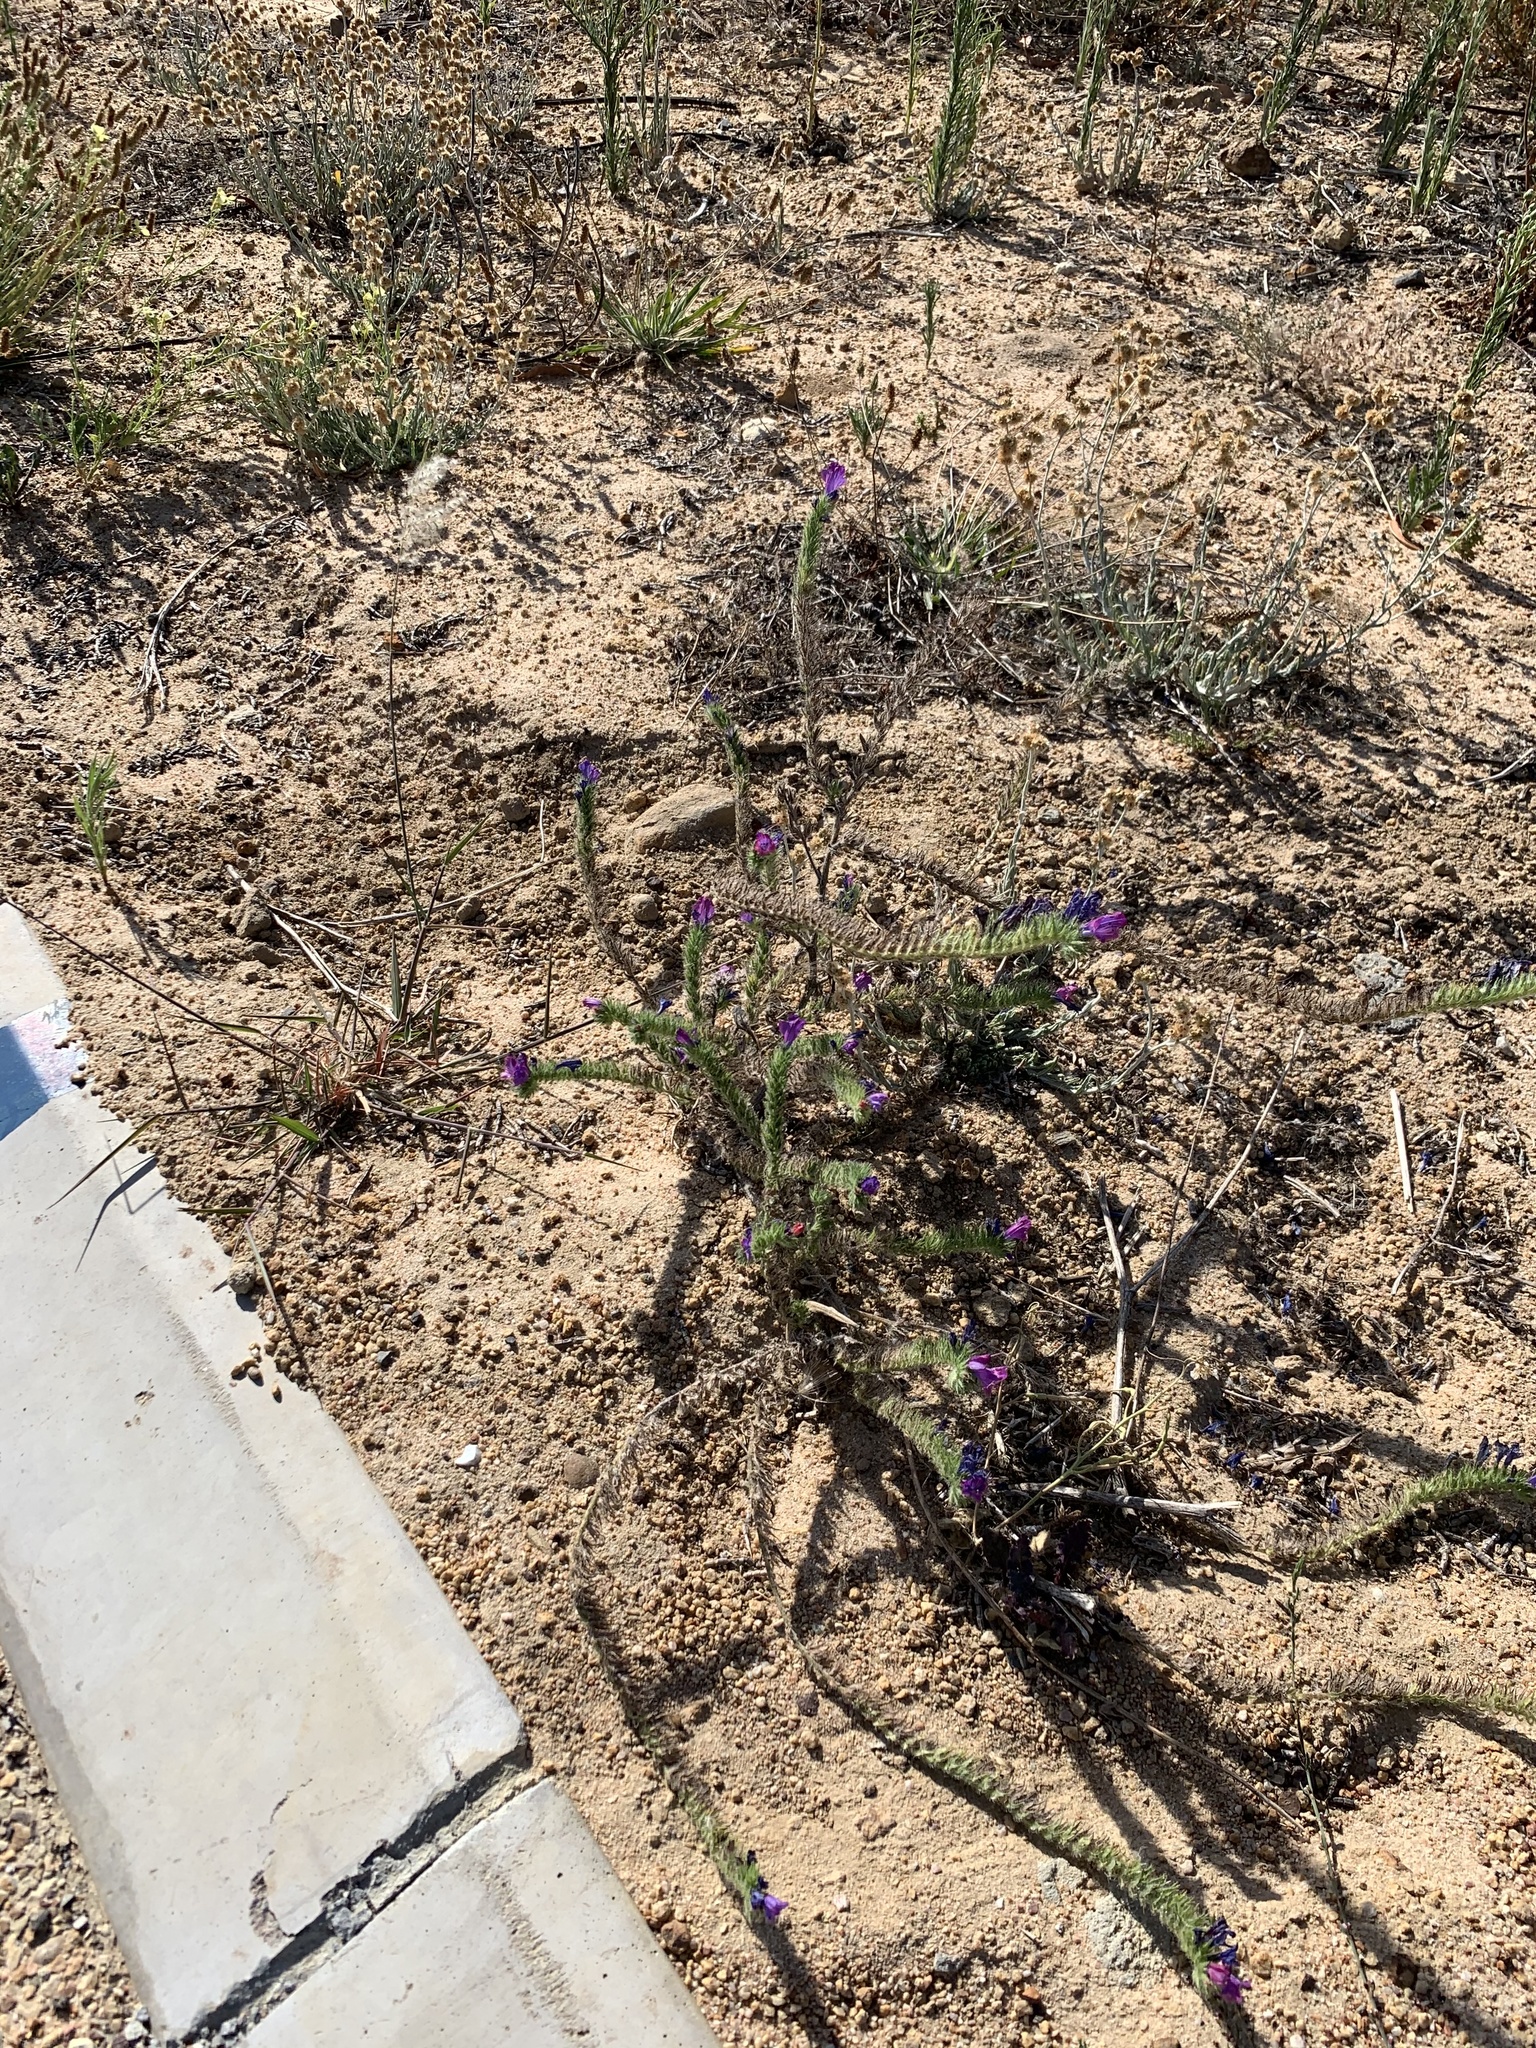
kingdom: Plantae
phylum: Tracheophyta
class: Magnoliopsida
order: Boraginales
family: Boraginaceae
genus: Echium
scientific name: Echium plantagineum
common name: Purple viper's-bugloss
